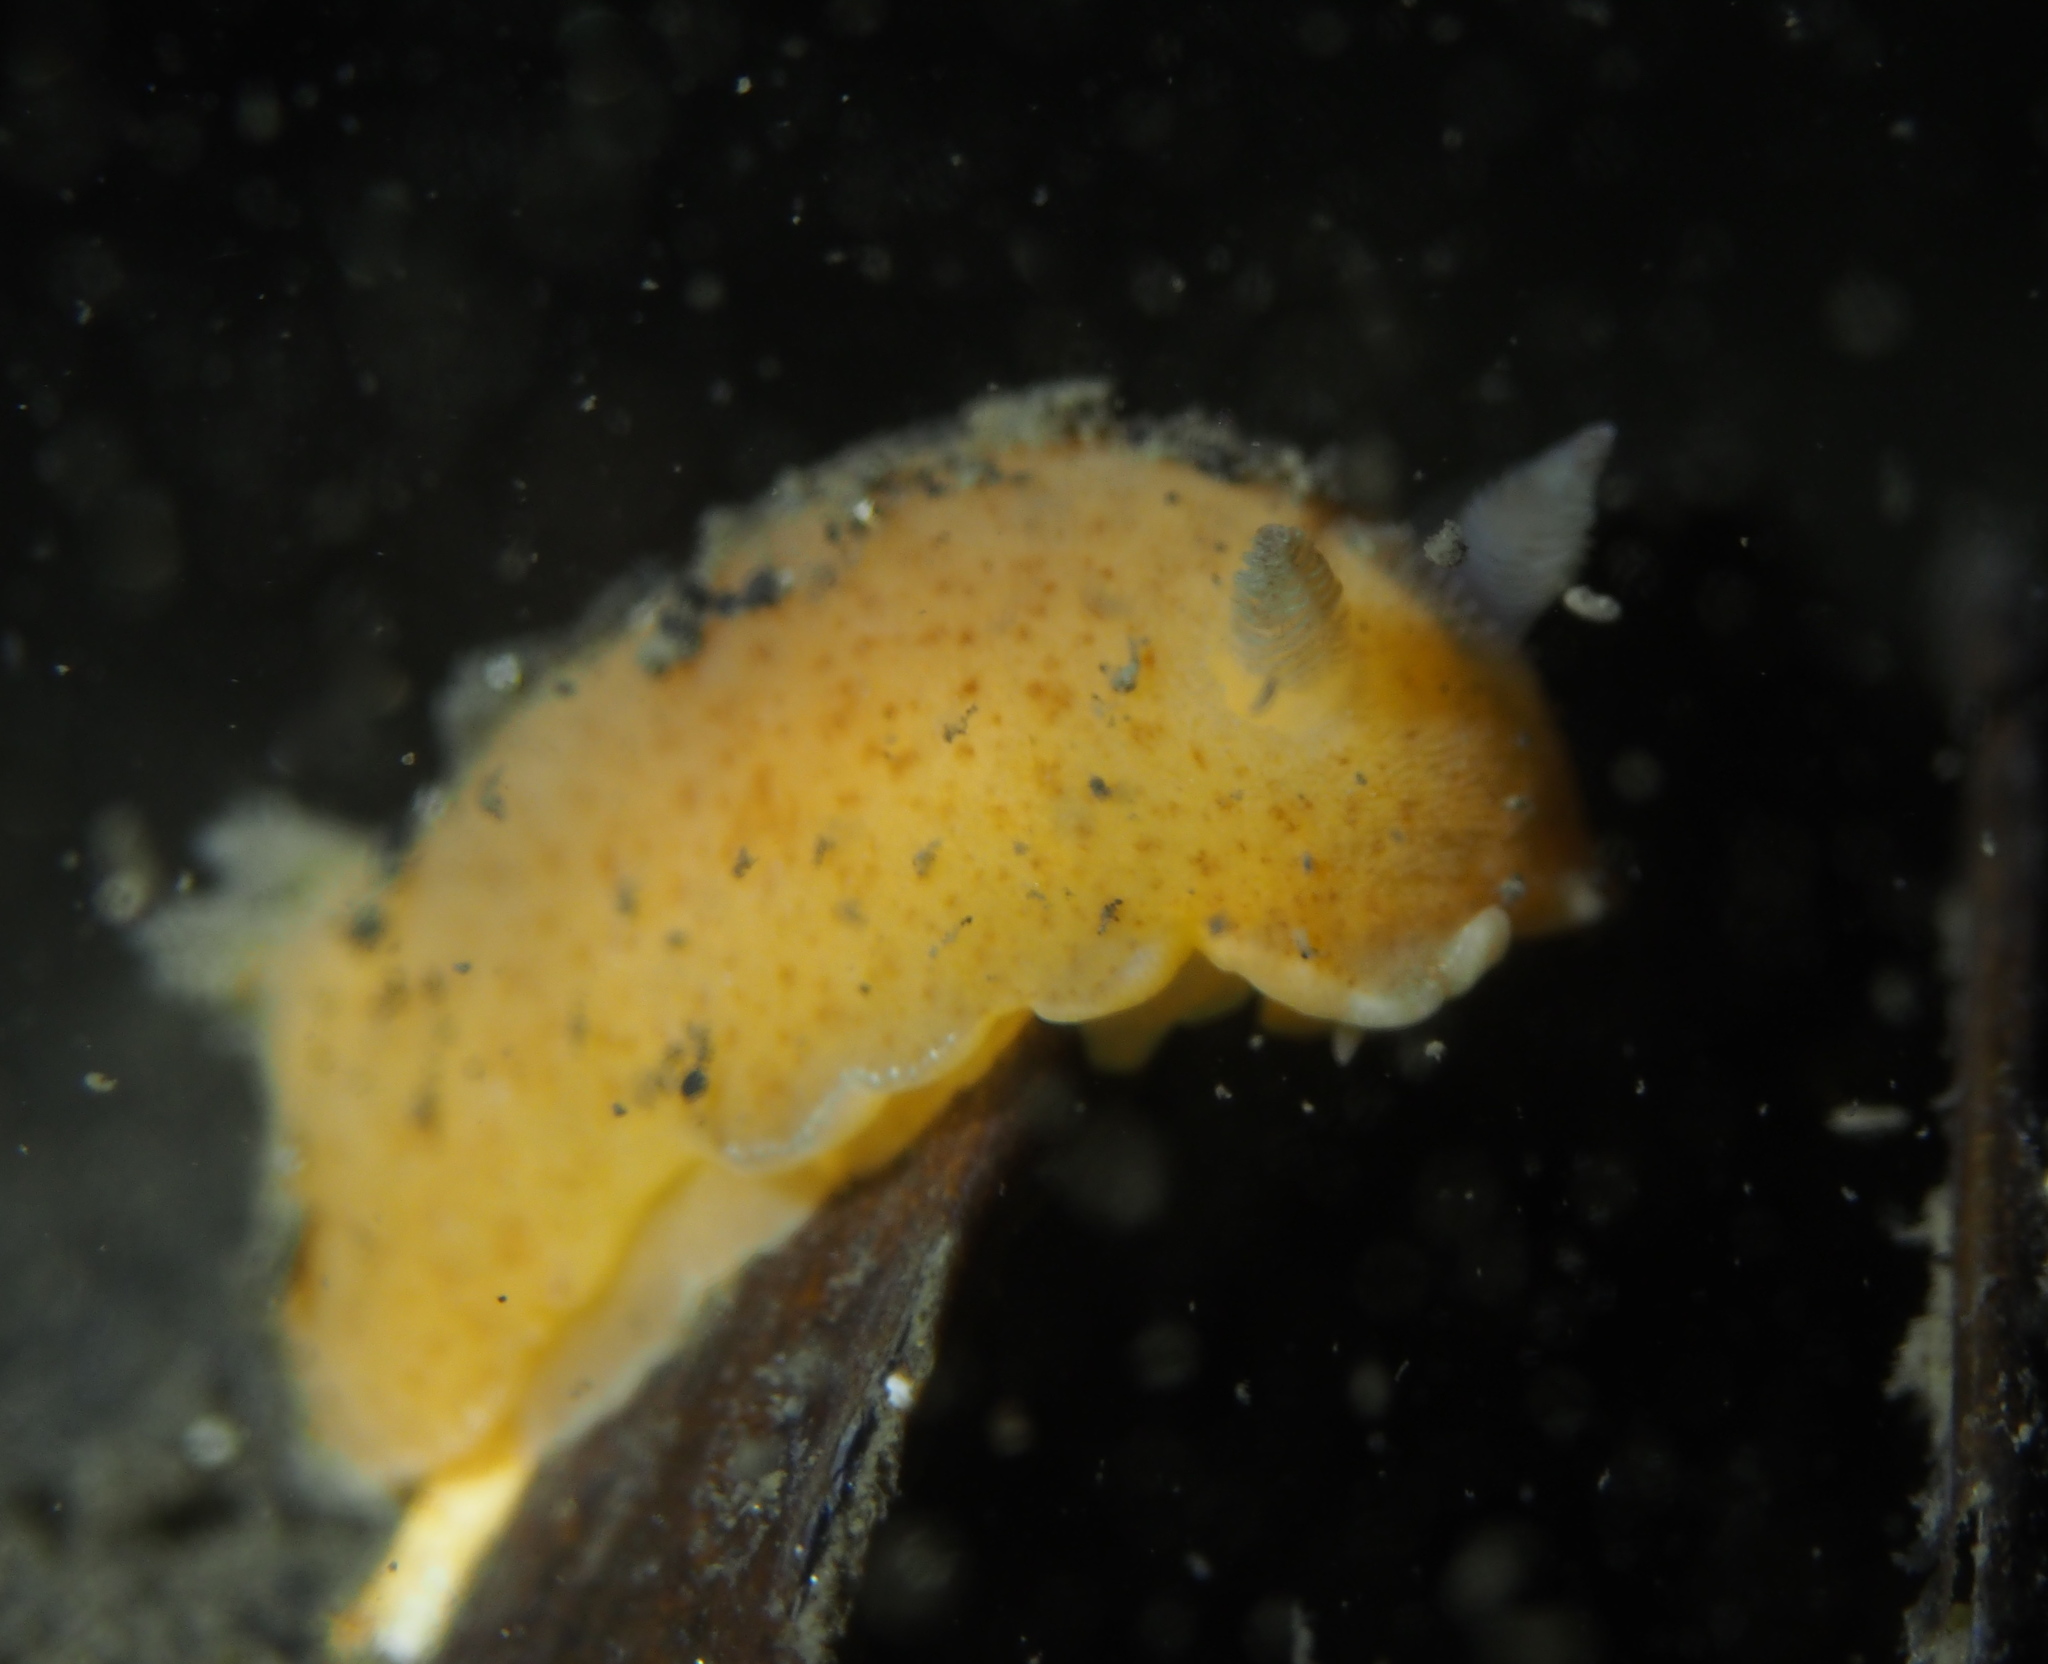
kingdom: Animalia
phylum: Mollusca
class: Gastropoda
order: Nudibranchia
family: Discodorididae
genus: Jorunna
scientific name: Jorunna tomentosa
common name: Grey sea slug
